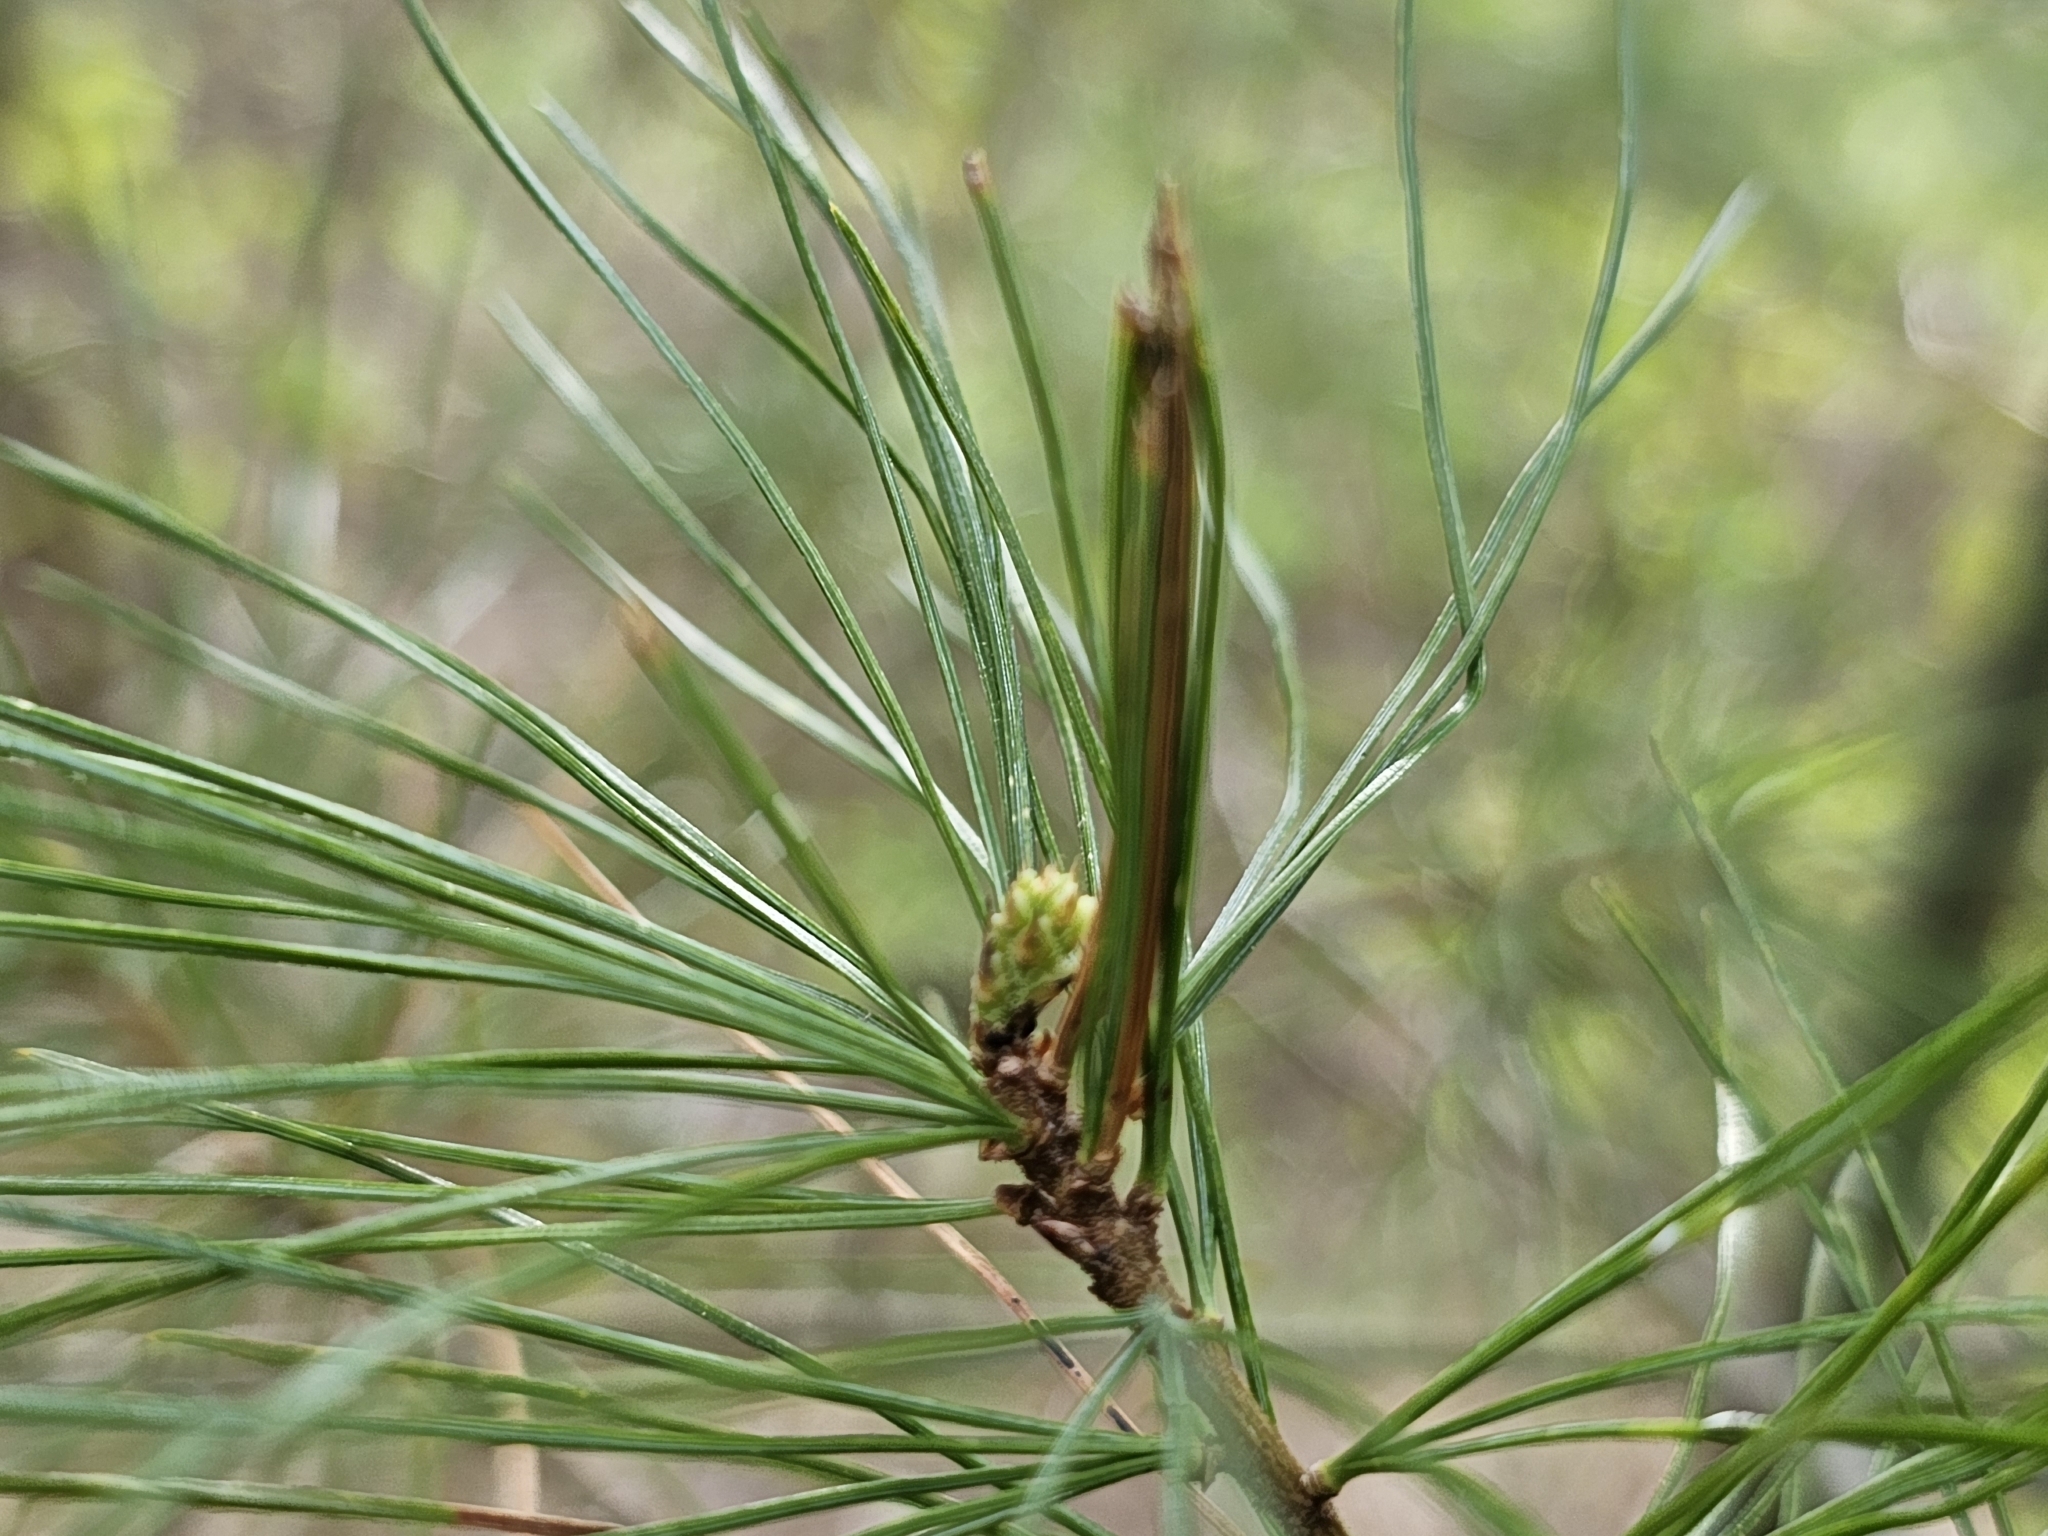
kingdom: Animalia
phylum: Arthropoda
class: Insecta
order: Lepidoptera
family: Tortricidae
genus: Argyrotaenia
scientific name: Argyrotaenia pinatubana
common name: Pine tube moth
